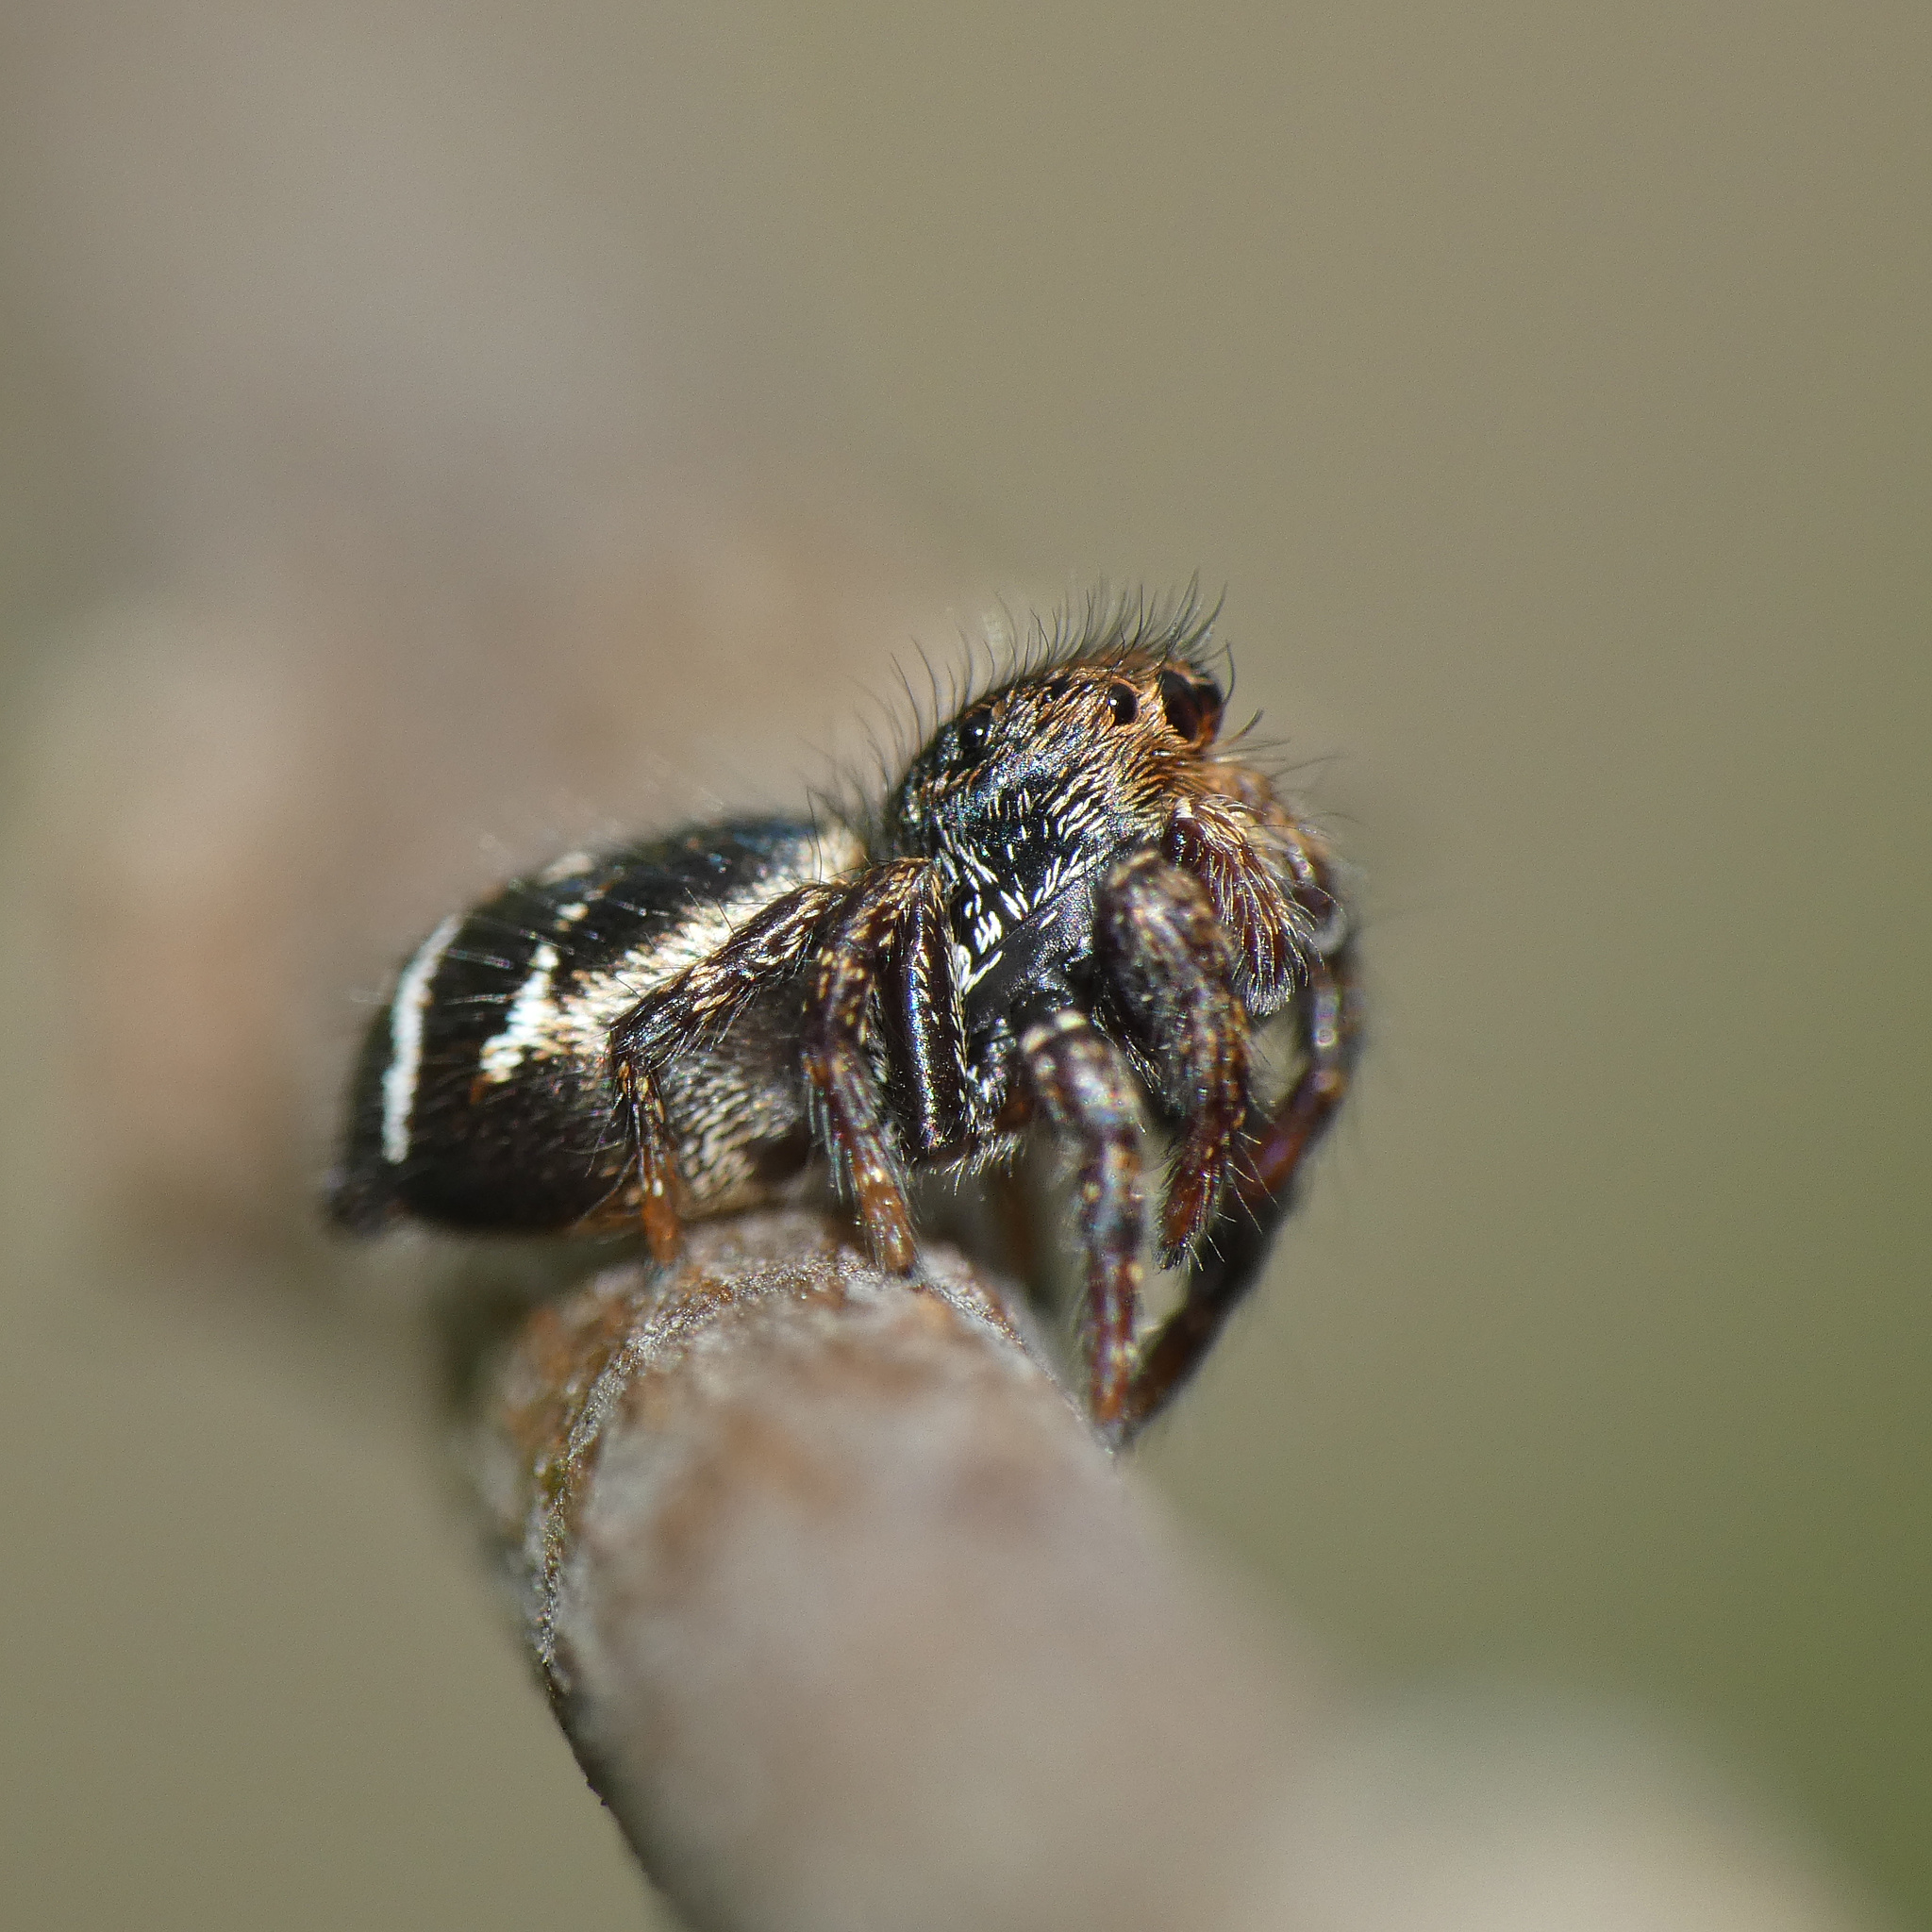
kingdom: Animalia
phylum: Arthropoda
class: Arachnida
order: Araneae
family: Salticidae
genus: Baryphas
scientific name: Baryphas ahenus
